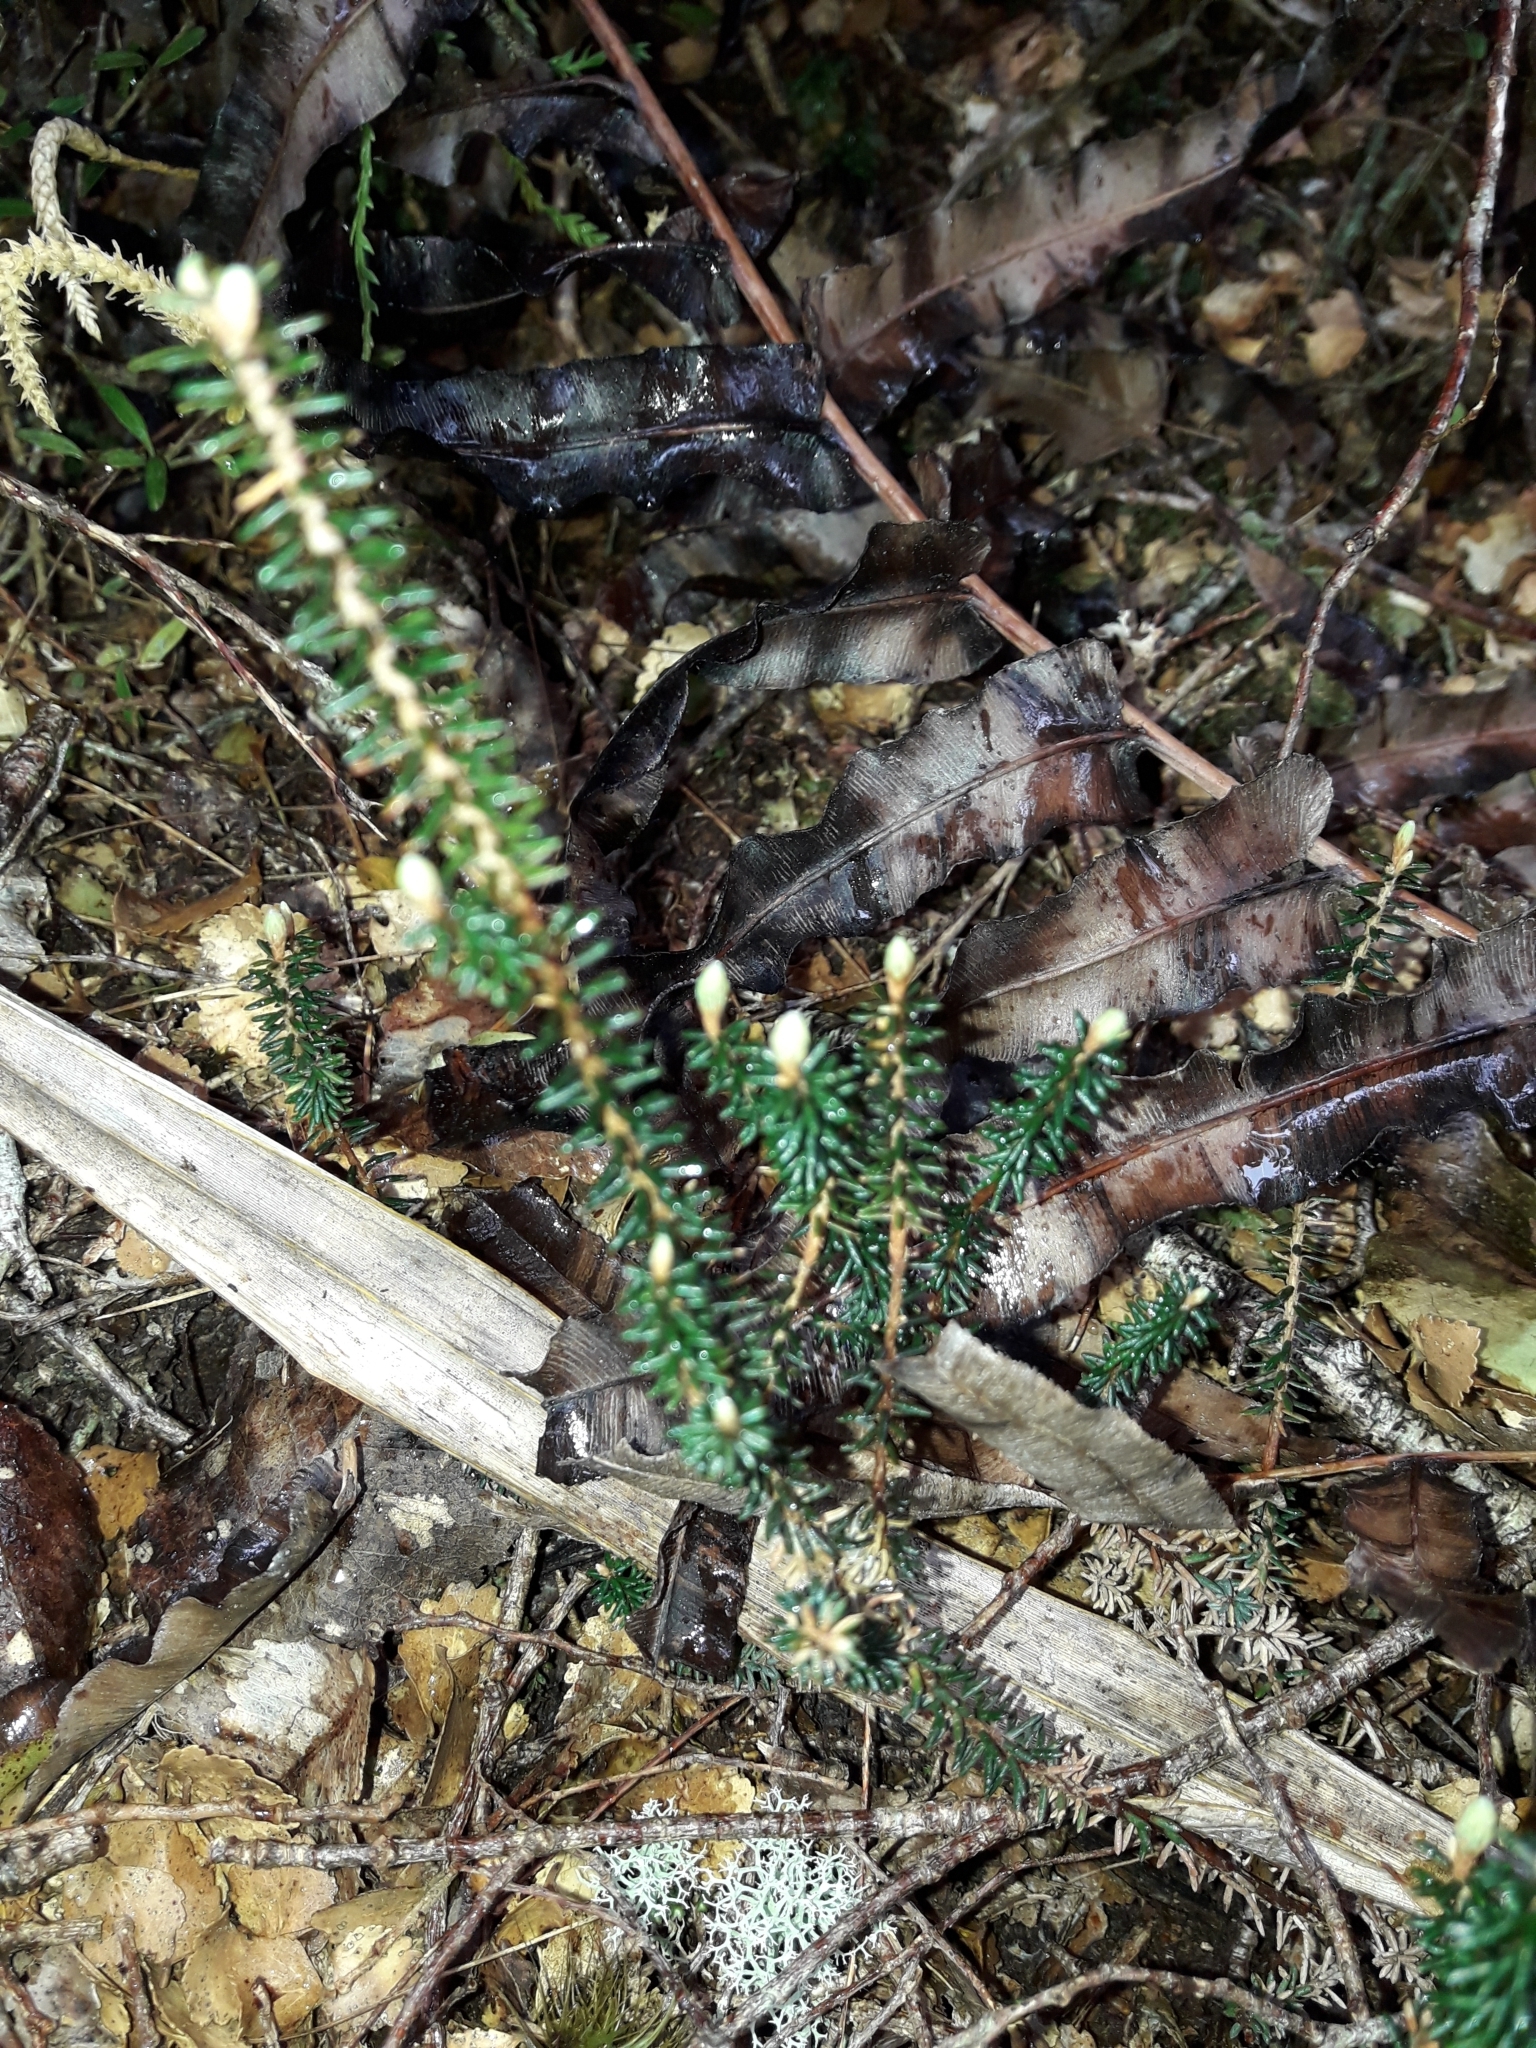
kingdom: Plantae
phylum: Tracheophyta
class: Magnoliopsida
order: Ericales
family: Ericaceae
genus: Acrothamnus
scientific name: Acrothamnus colensoi
